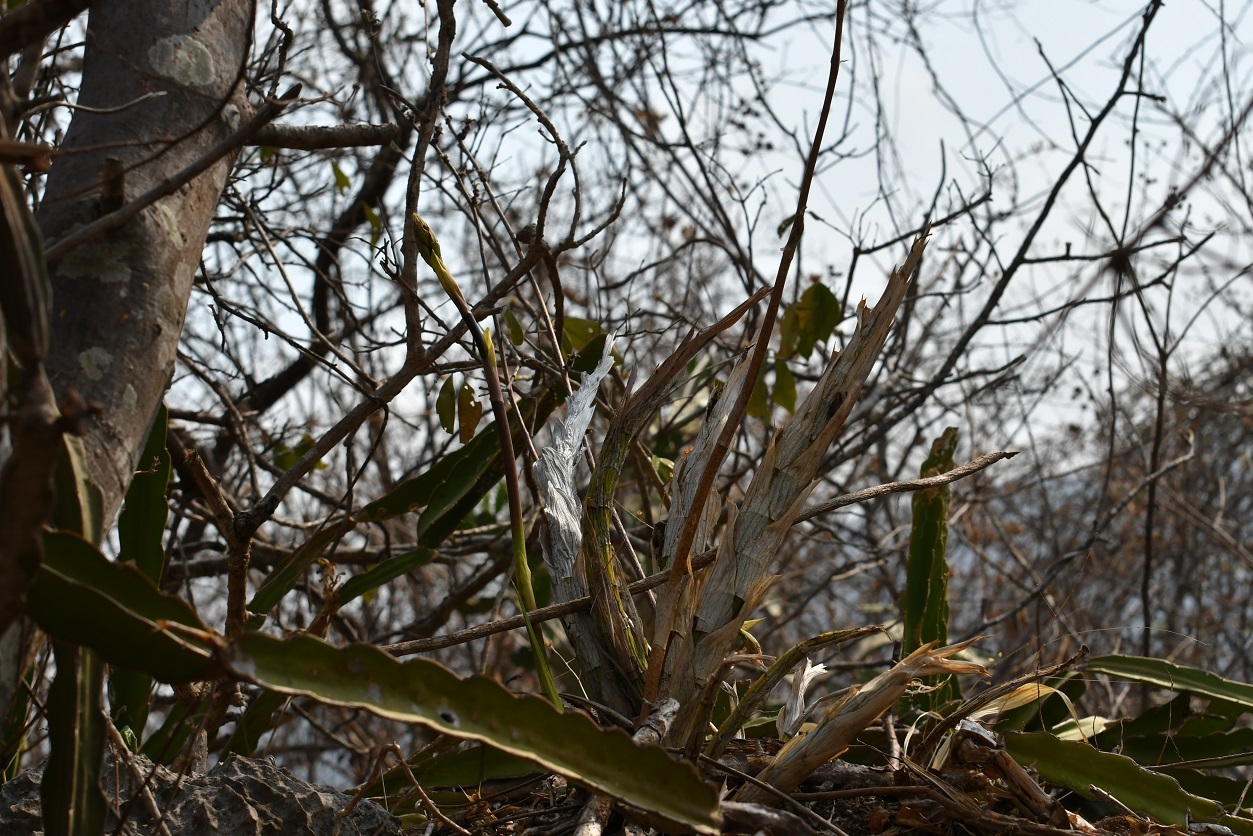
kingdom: Plantae
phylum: Tracheophyta
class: Liliopsida
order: Asparagales
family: Orchidaceae
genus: Cyrtopodium
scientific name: Cyrtopodium macrobulbon
